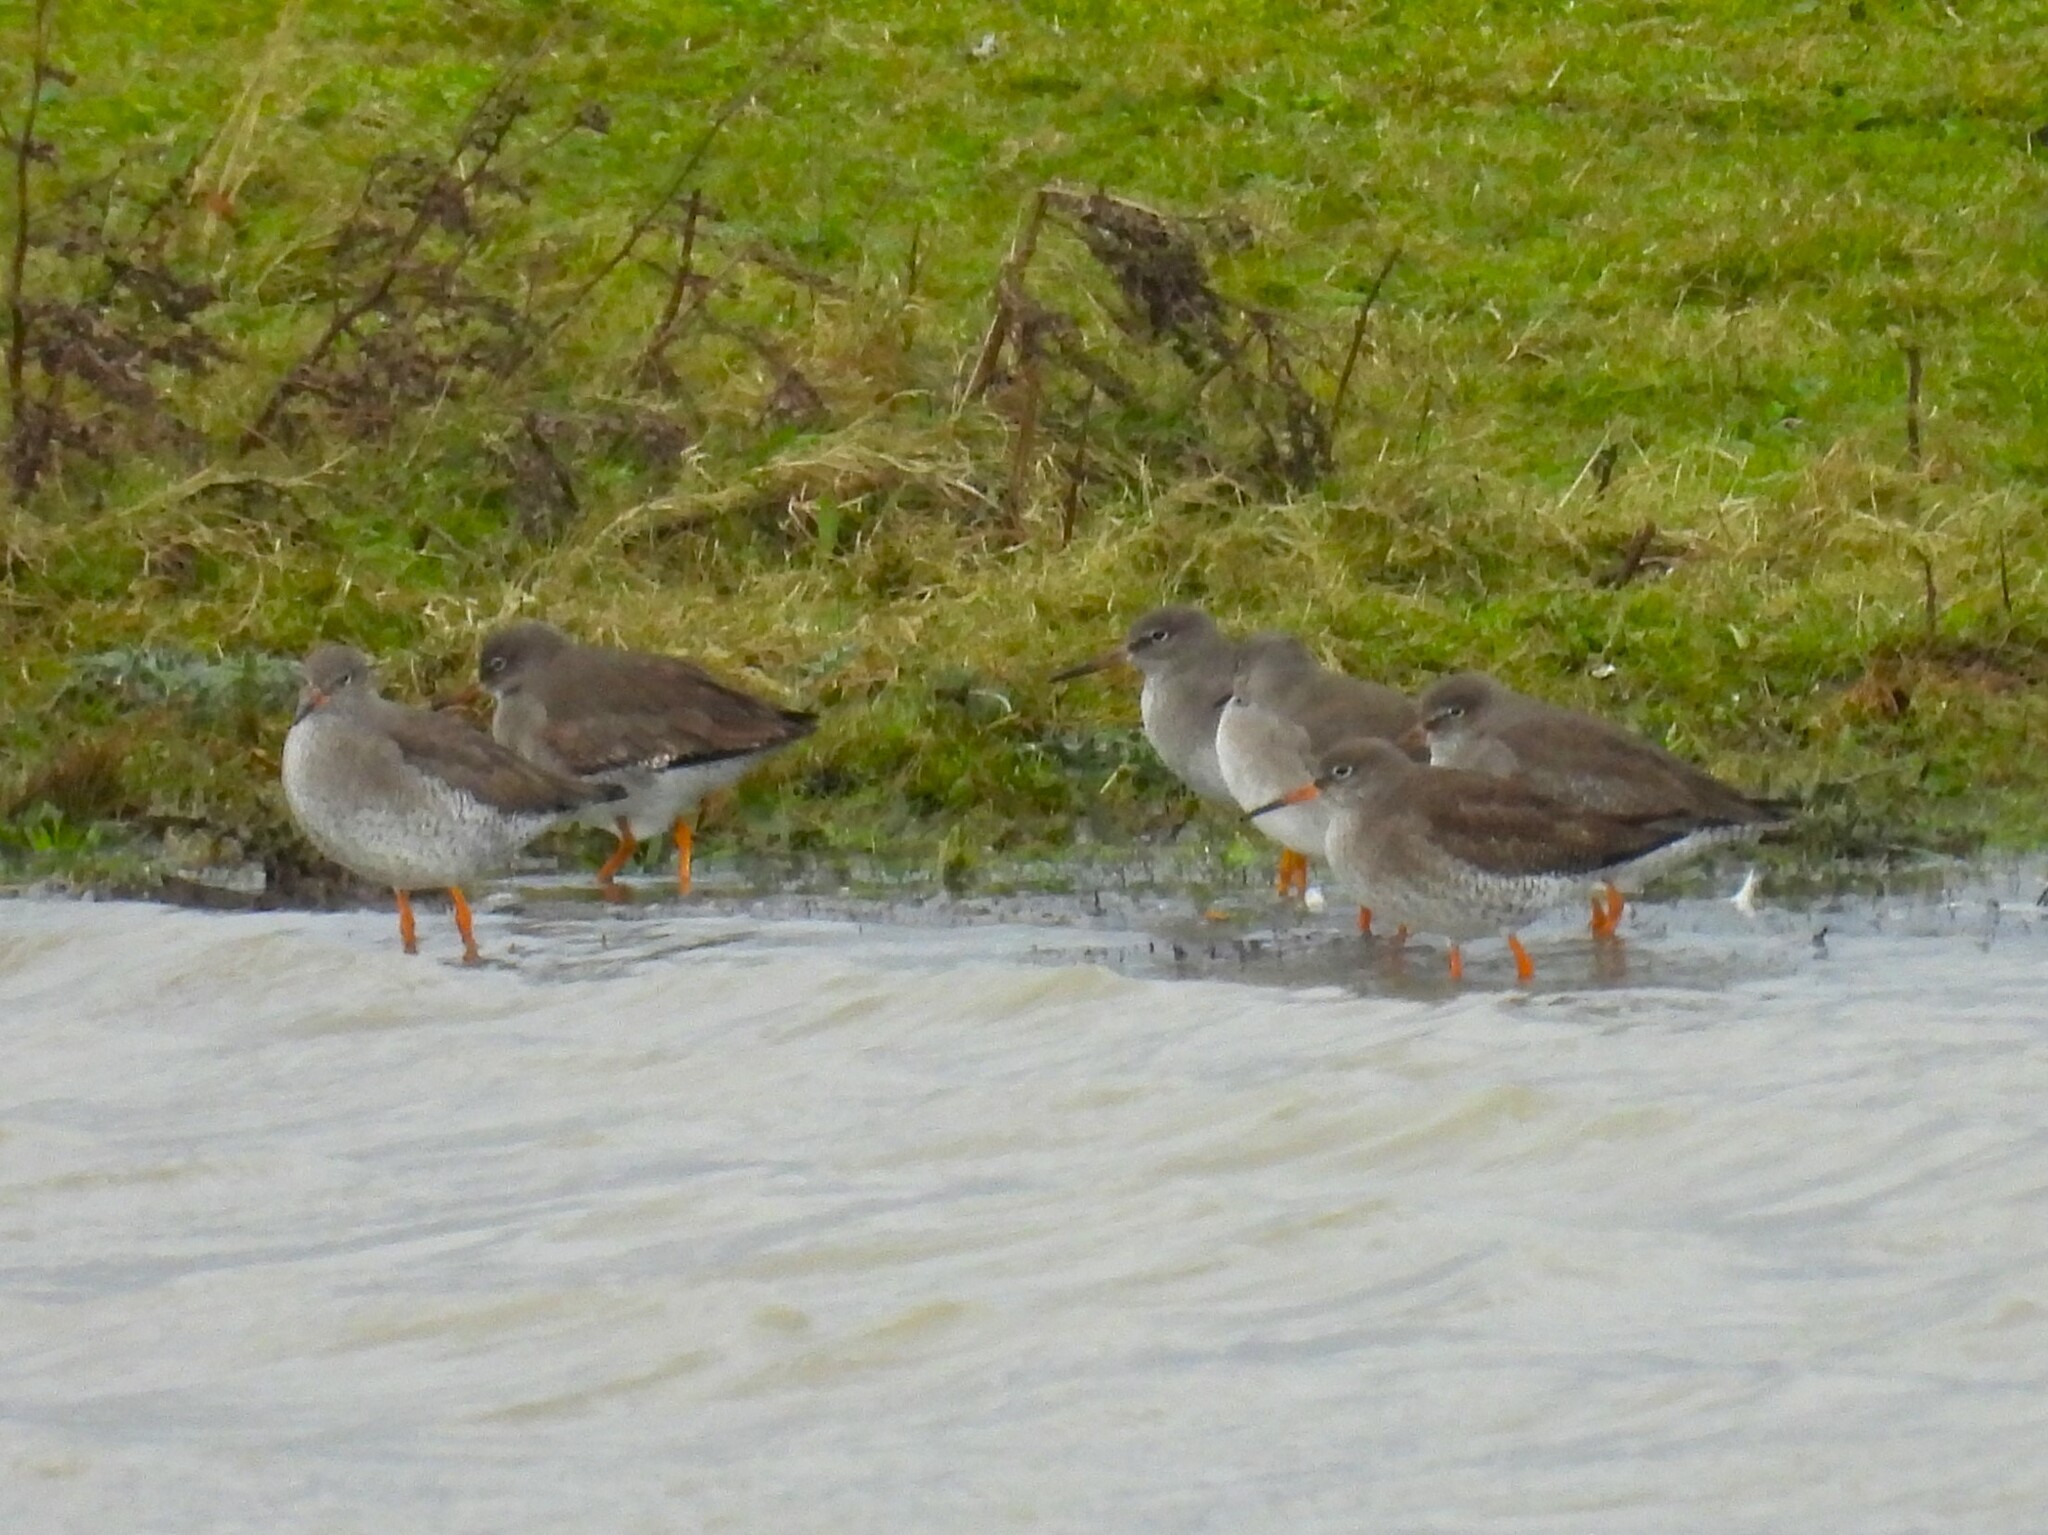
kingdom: Animalia
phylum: Chordata
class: Aves
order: Charadriiformes
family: Scolopacidae
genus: Tringa
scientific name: Tringa totanus
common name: Common redshank
